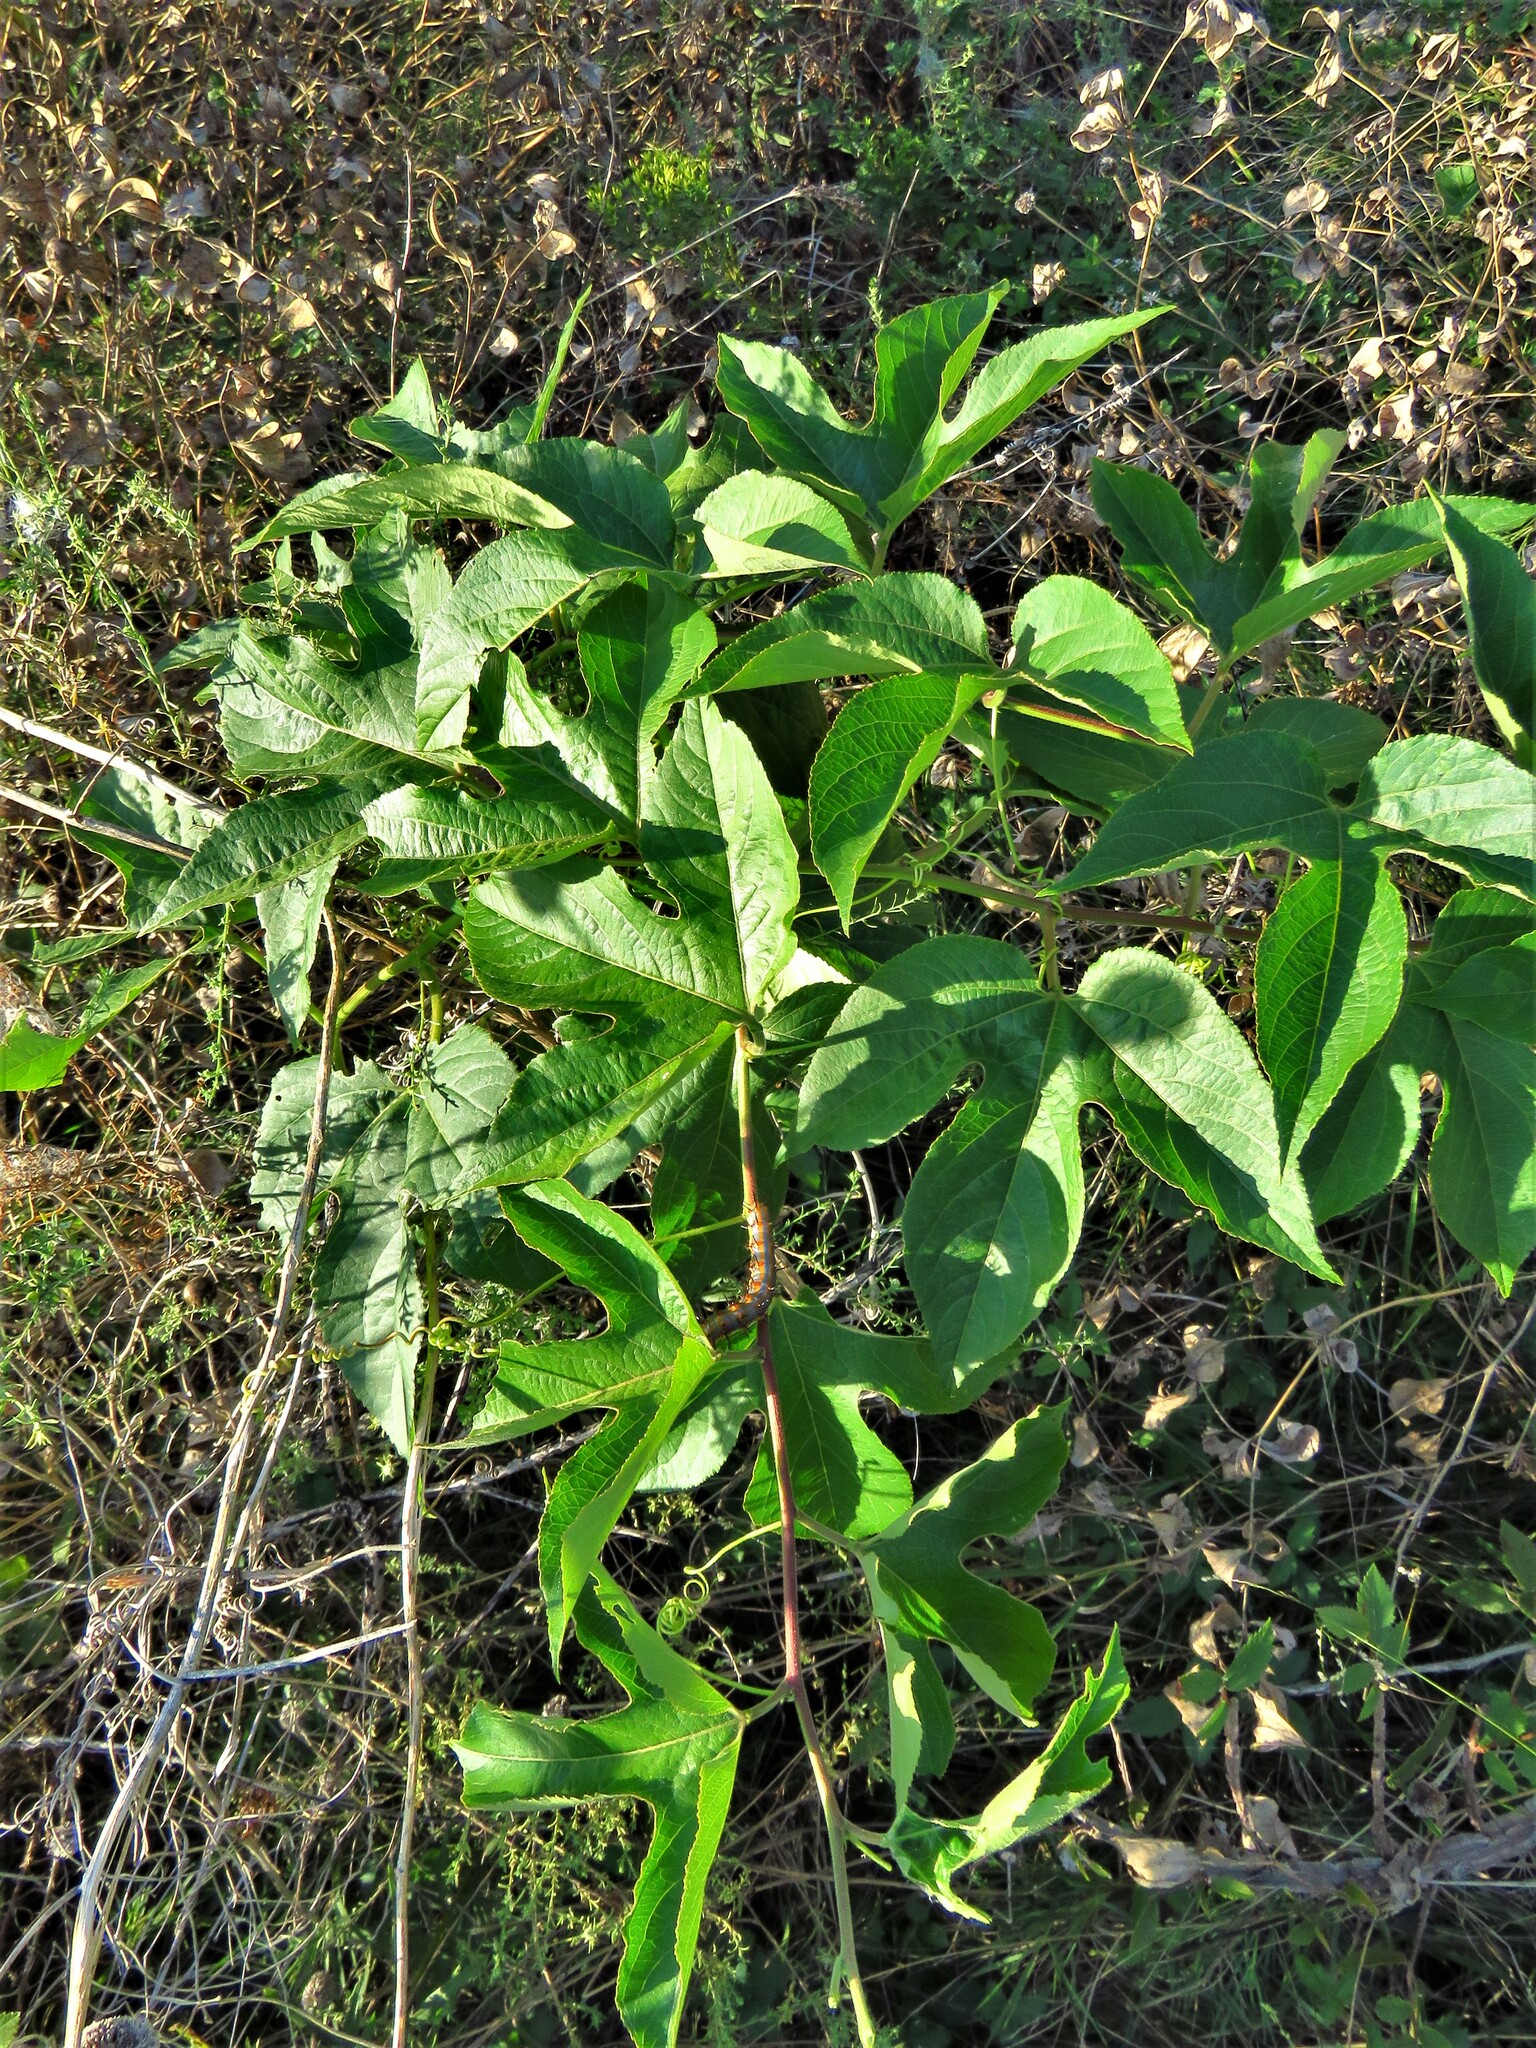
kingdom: Plantae
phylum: Tracheophyta
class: Magnoliopsida
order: Malpighiales
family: Passifloraceae
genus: Passiflora
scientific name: Passiflora incarnata
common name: Apricot-vine
